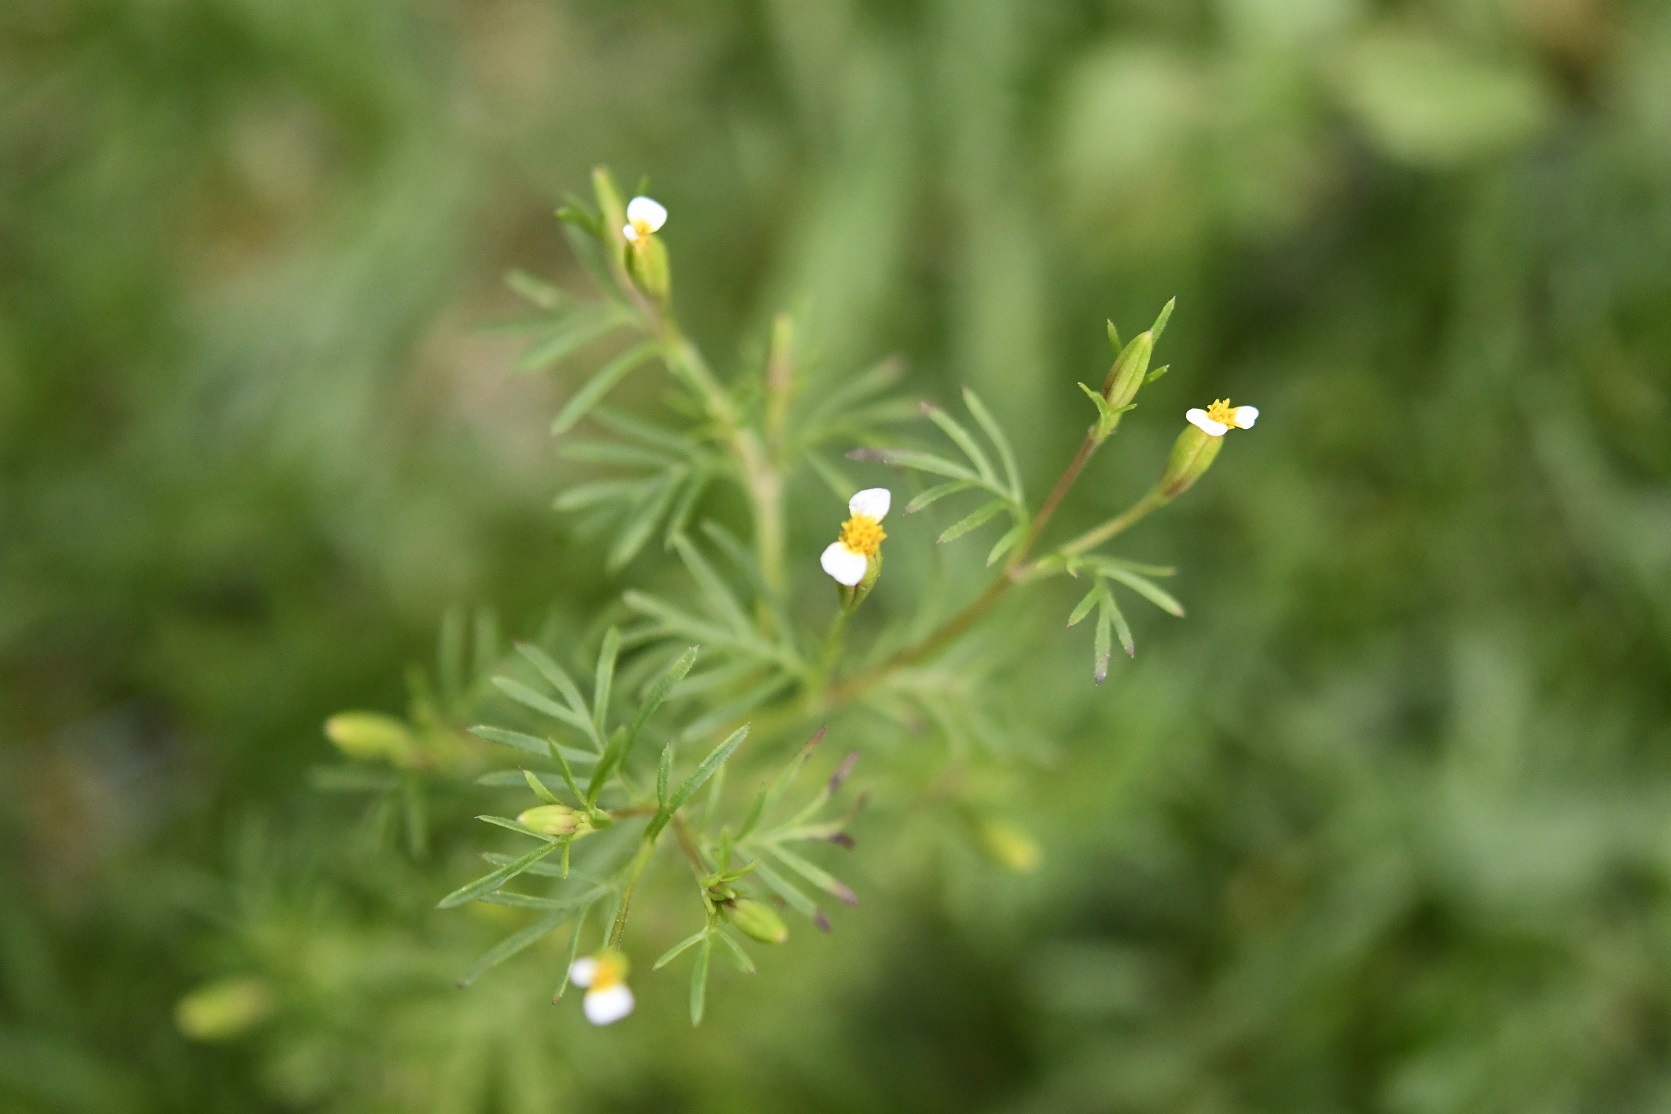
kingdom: Plantae
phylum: Tracheophyta
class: Magnoliopsida
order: Asterales
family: Asteraceae
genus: Tagetes
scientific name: Tagetes filifolia
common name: Lesser marigold
